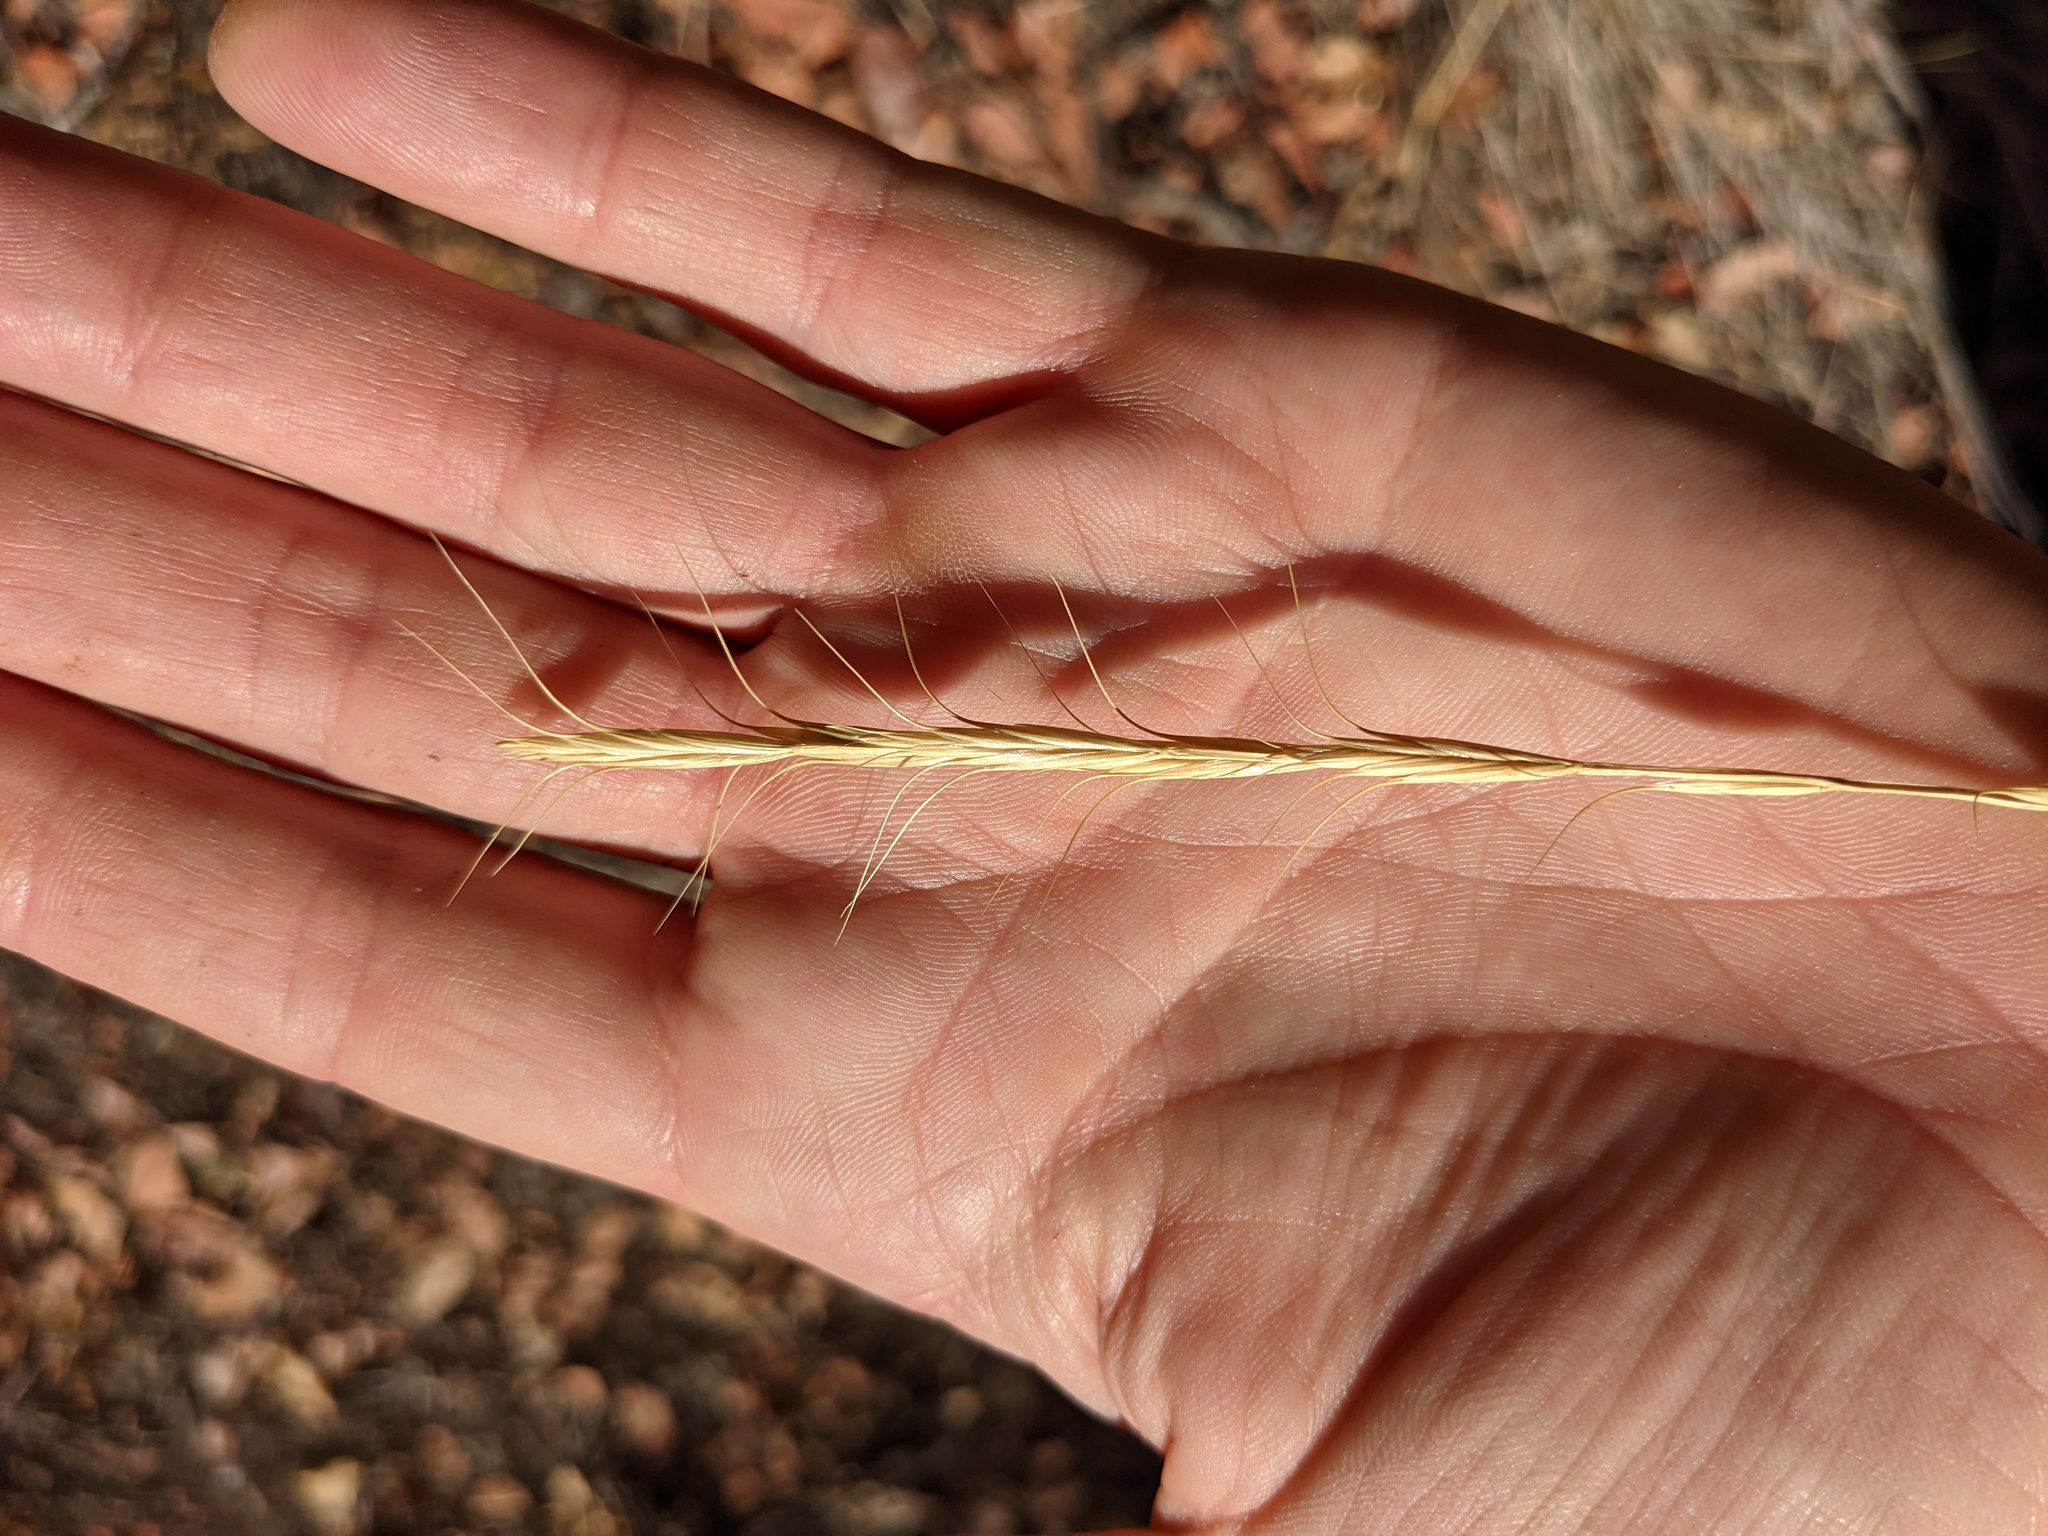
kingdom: Plantae
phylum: Tracheophyta
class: Liliopsida
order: Poales
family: Poaceae
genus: Pseudoroegneria
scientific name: Pseudoroegneria spicata
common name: Bluebunch wheatgrass
